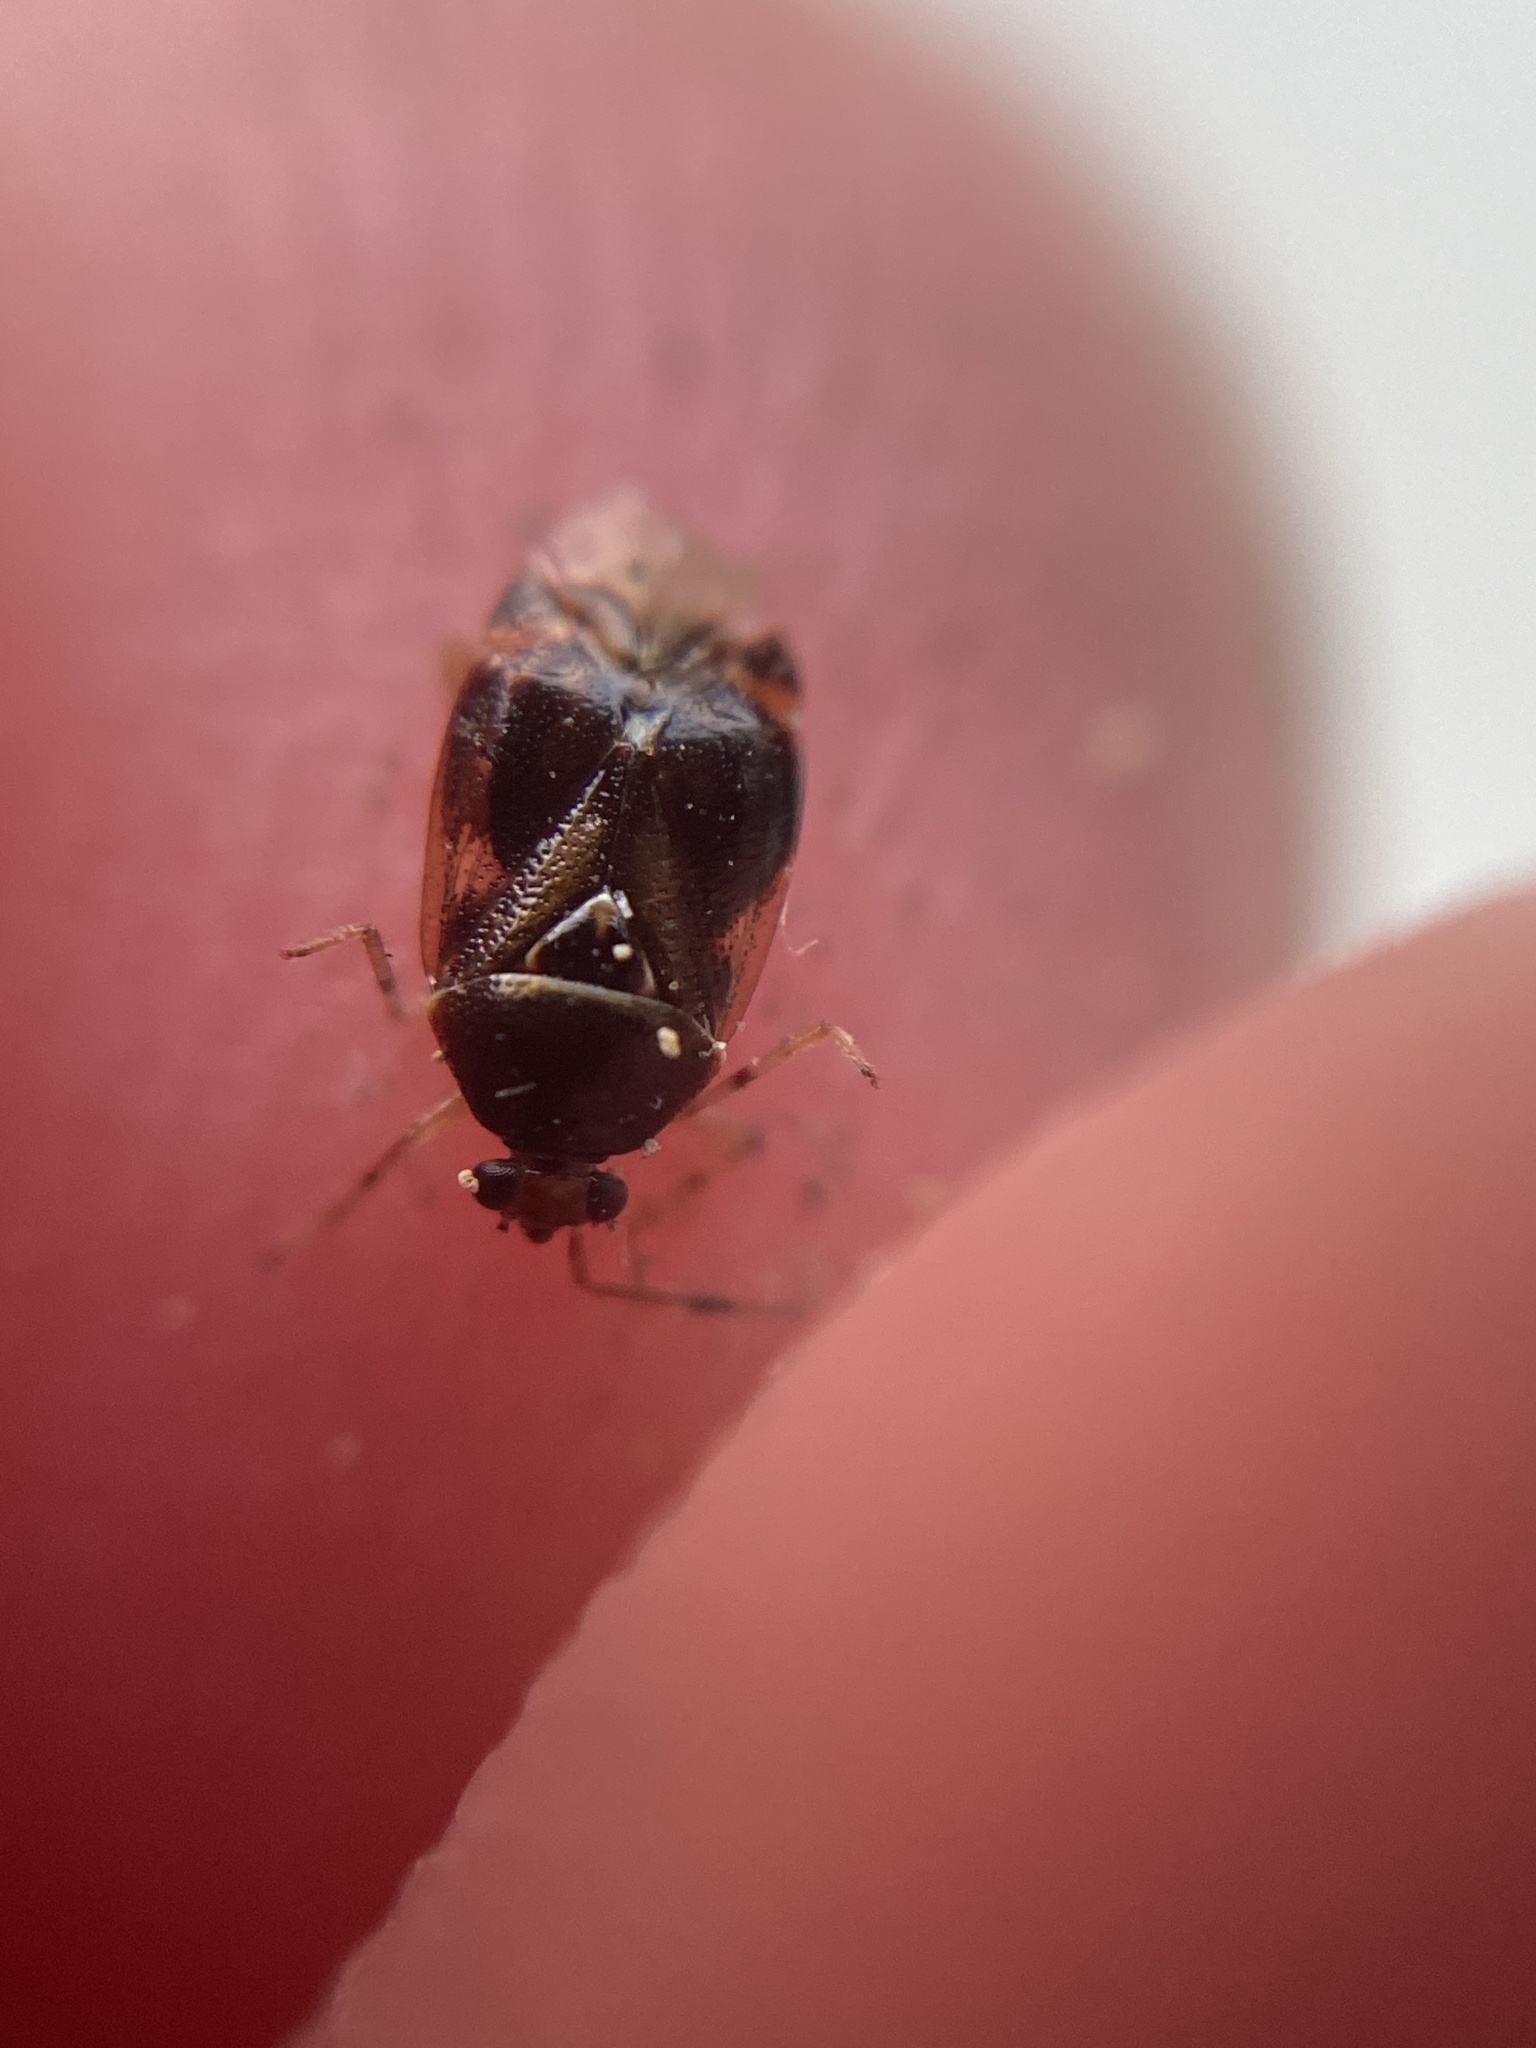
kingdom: Animalia
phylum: Arthropoda
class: Insecta
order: Hemiptera
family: Miridae
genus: Deraeocoris
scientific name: Deraeocoris lutescens
